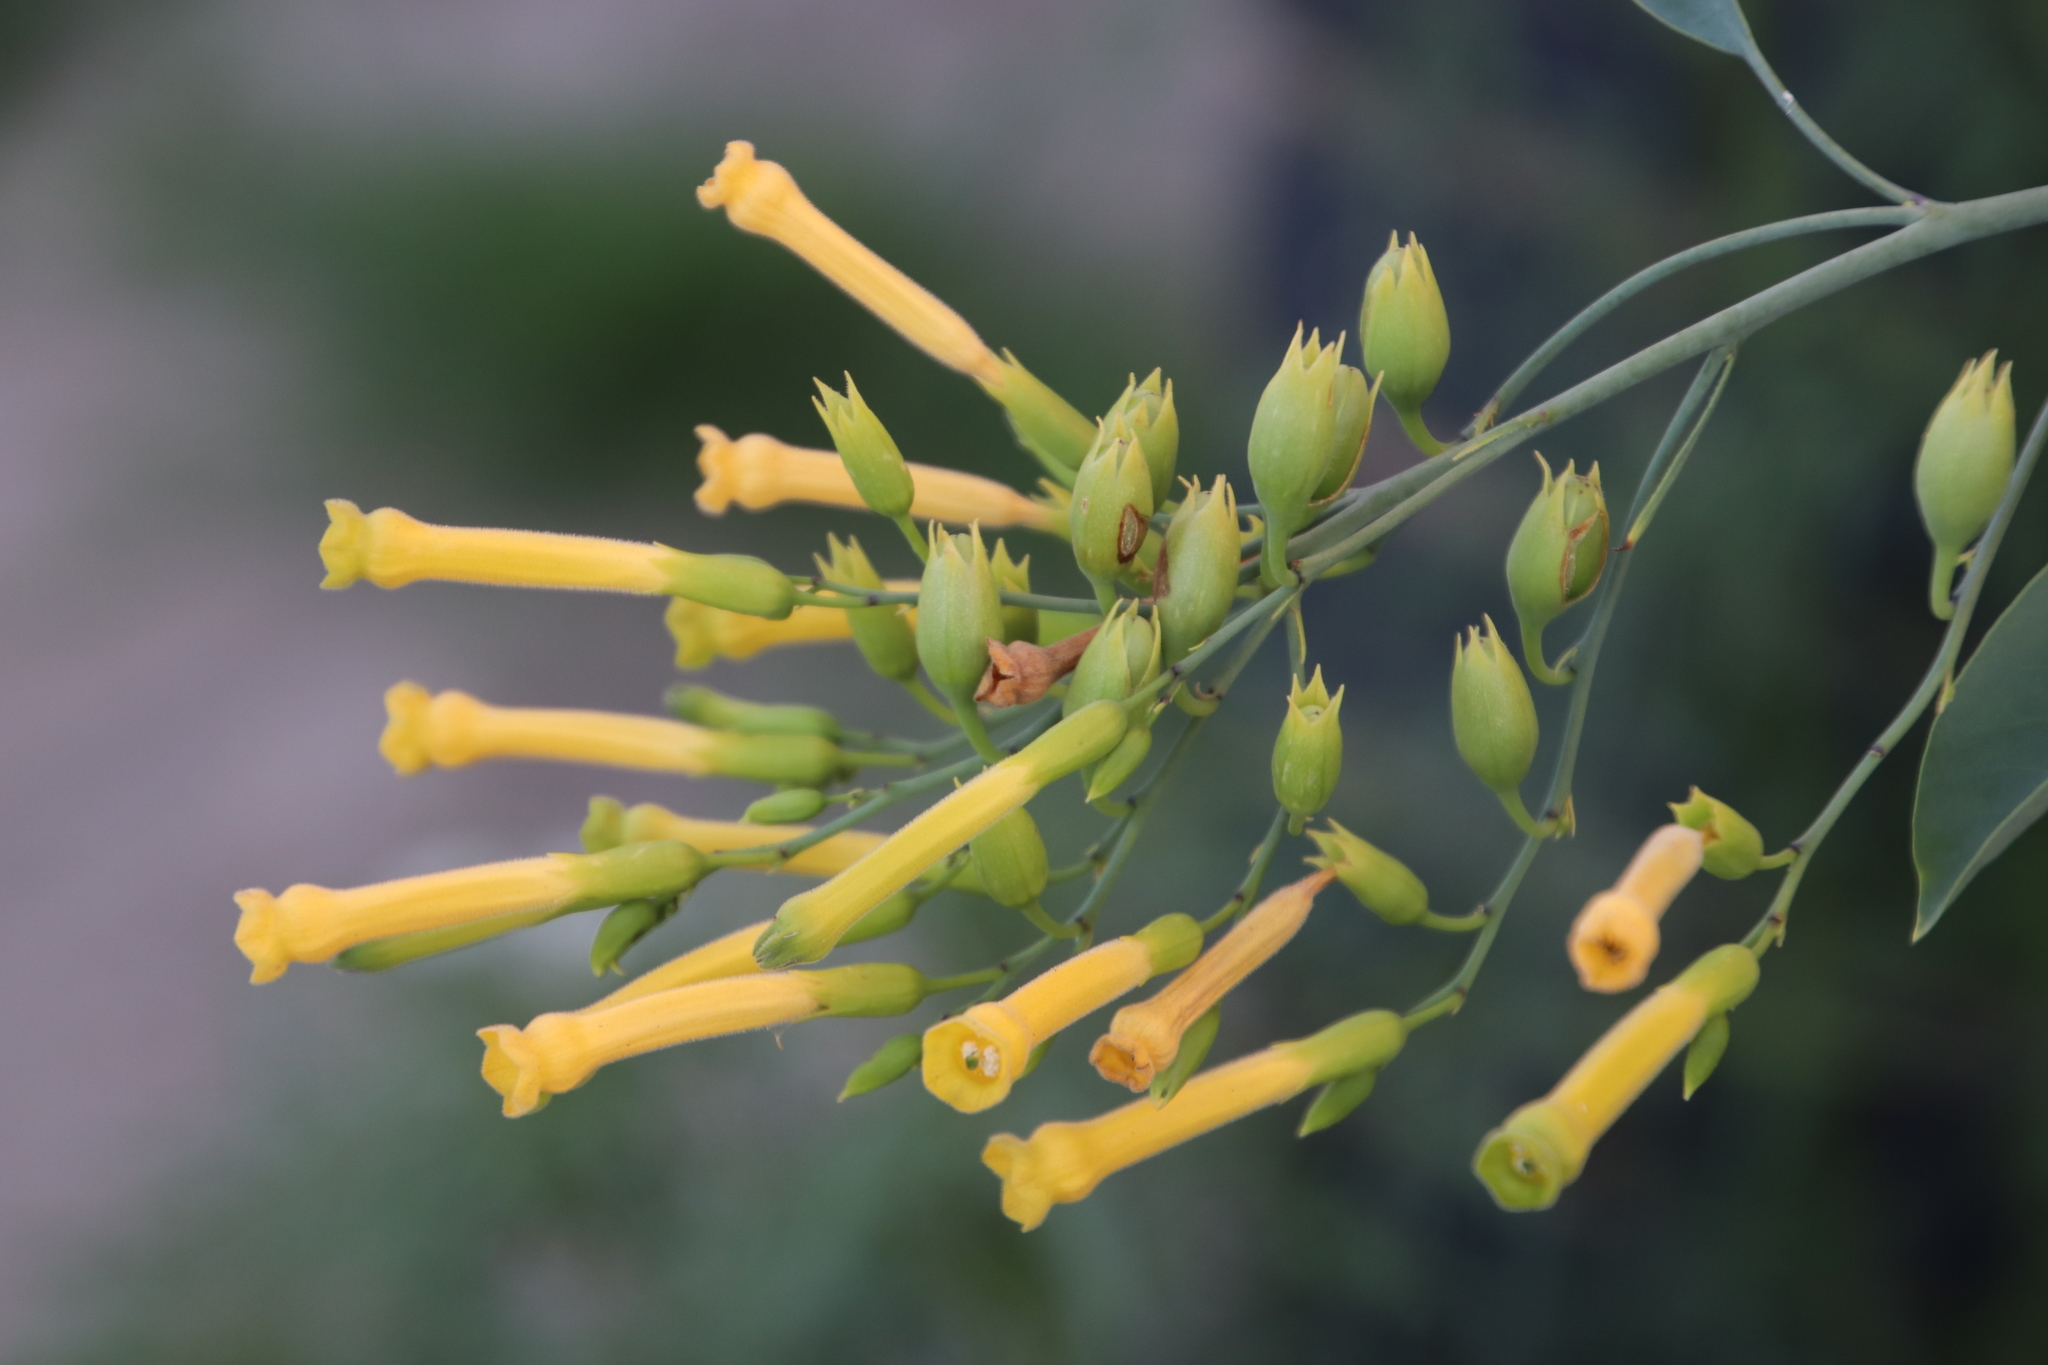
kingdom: Plantae
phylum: Tracheophyta
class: Magnoliopsida
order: Solanales
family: Solanaceae
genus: Nicotiana
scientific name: Nicotiana glauca
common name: Tree tobacco
